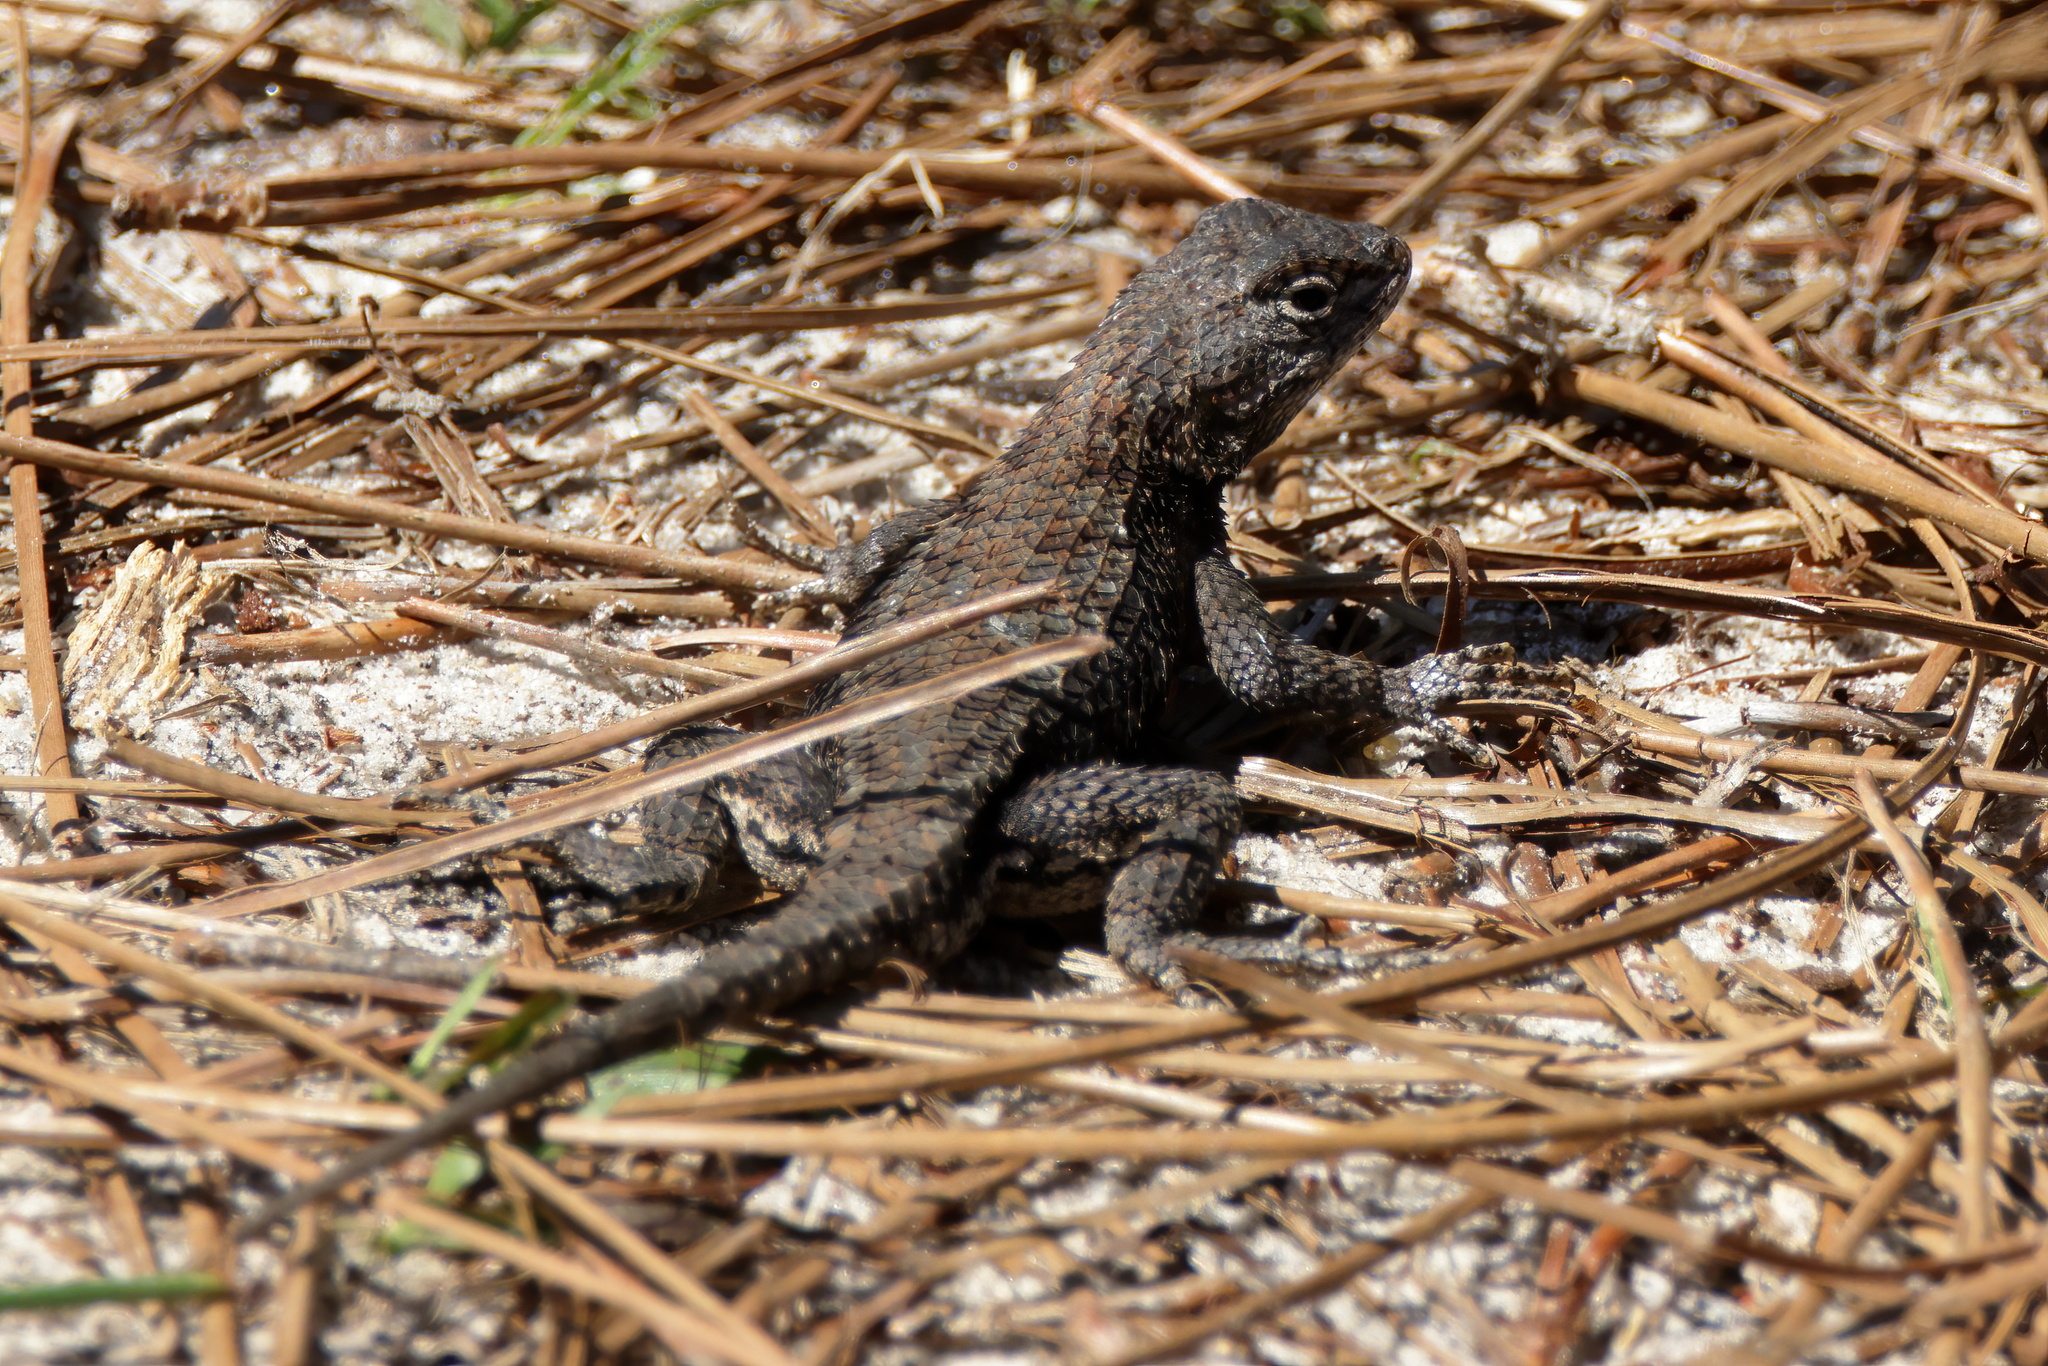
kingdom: Animalia
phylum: Chordata
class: Squamata
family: Phrynosomatidae
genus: Sceloporus
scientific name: Sceloporus undulatus
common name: Eastern fence lizard
